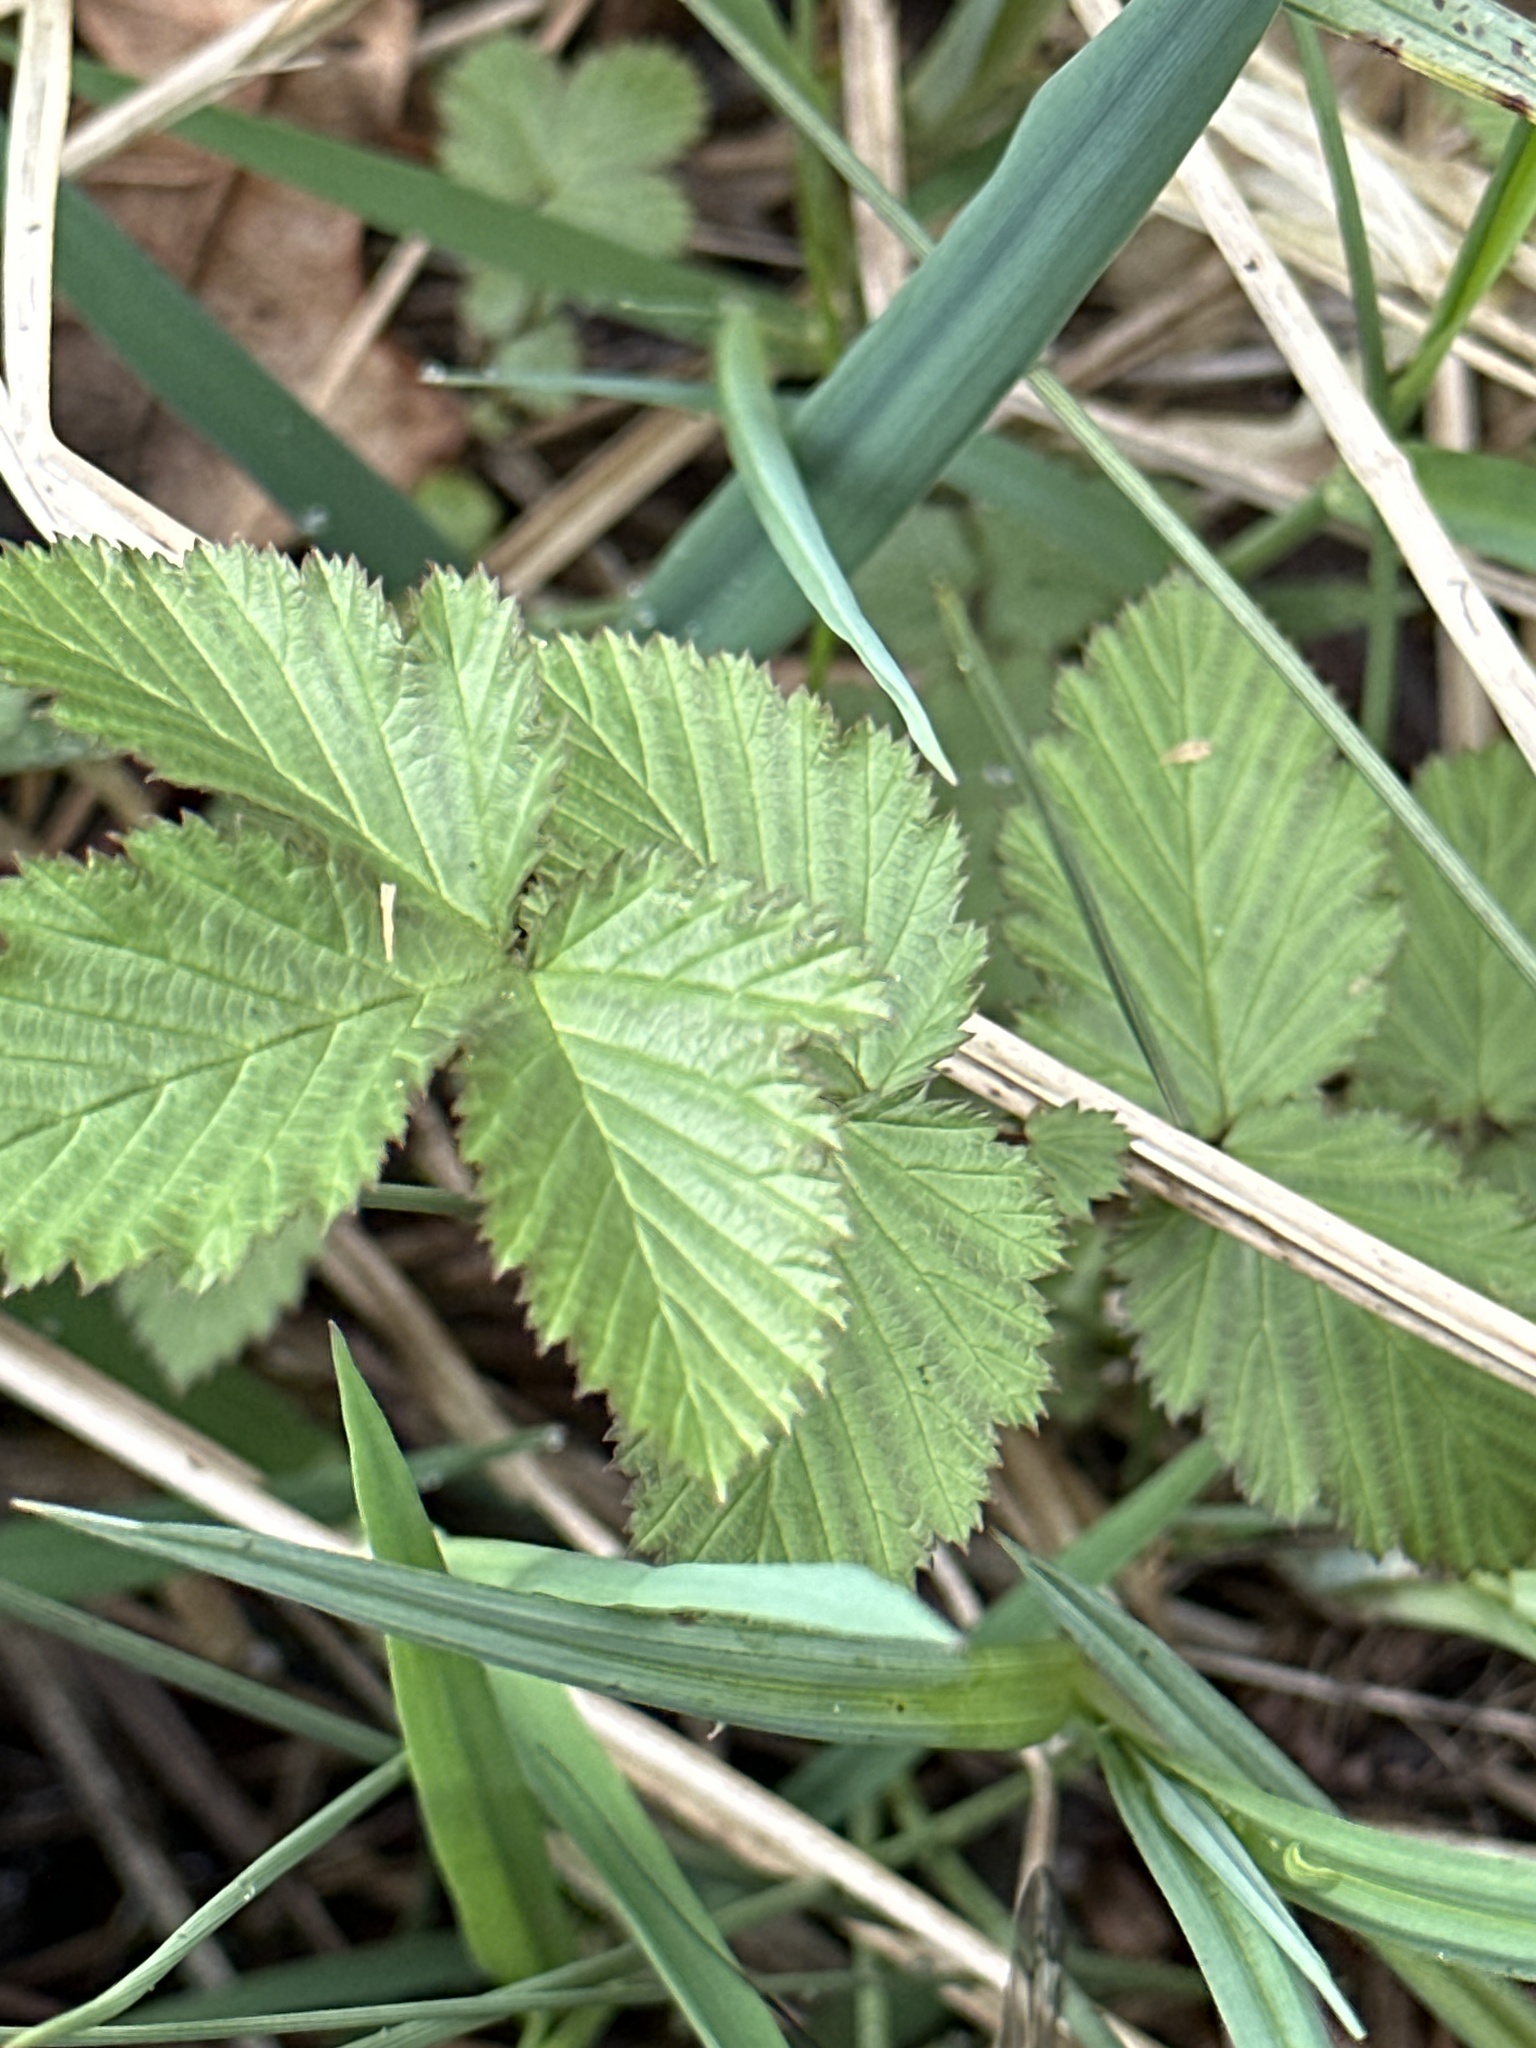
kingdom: Plantae
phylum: Tracheophyta
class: Magnoliopsida
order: Rosales
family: Rosaceae
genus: Filipendula
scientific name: Filipendula ulmaria
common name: Meadowsweet
